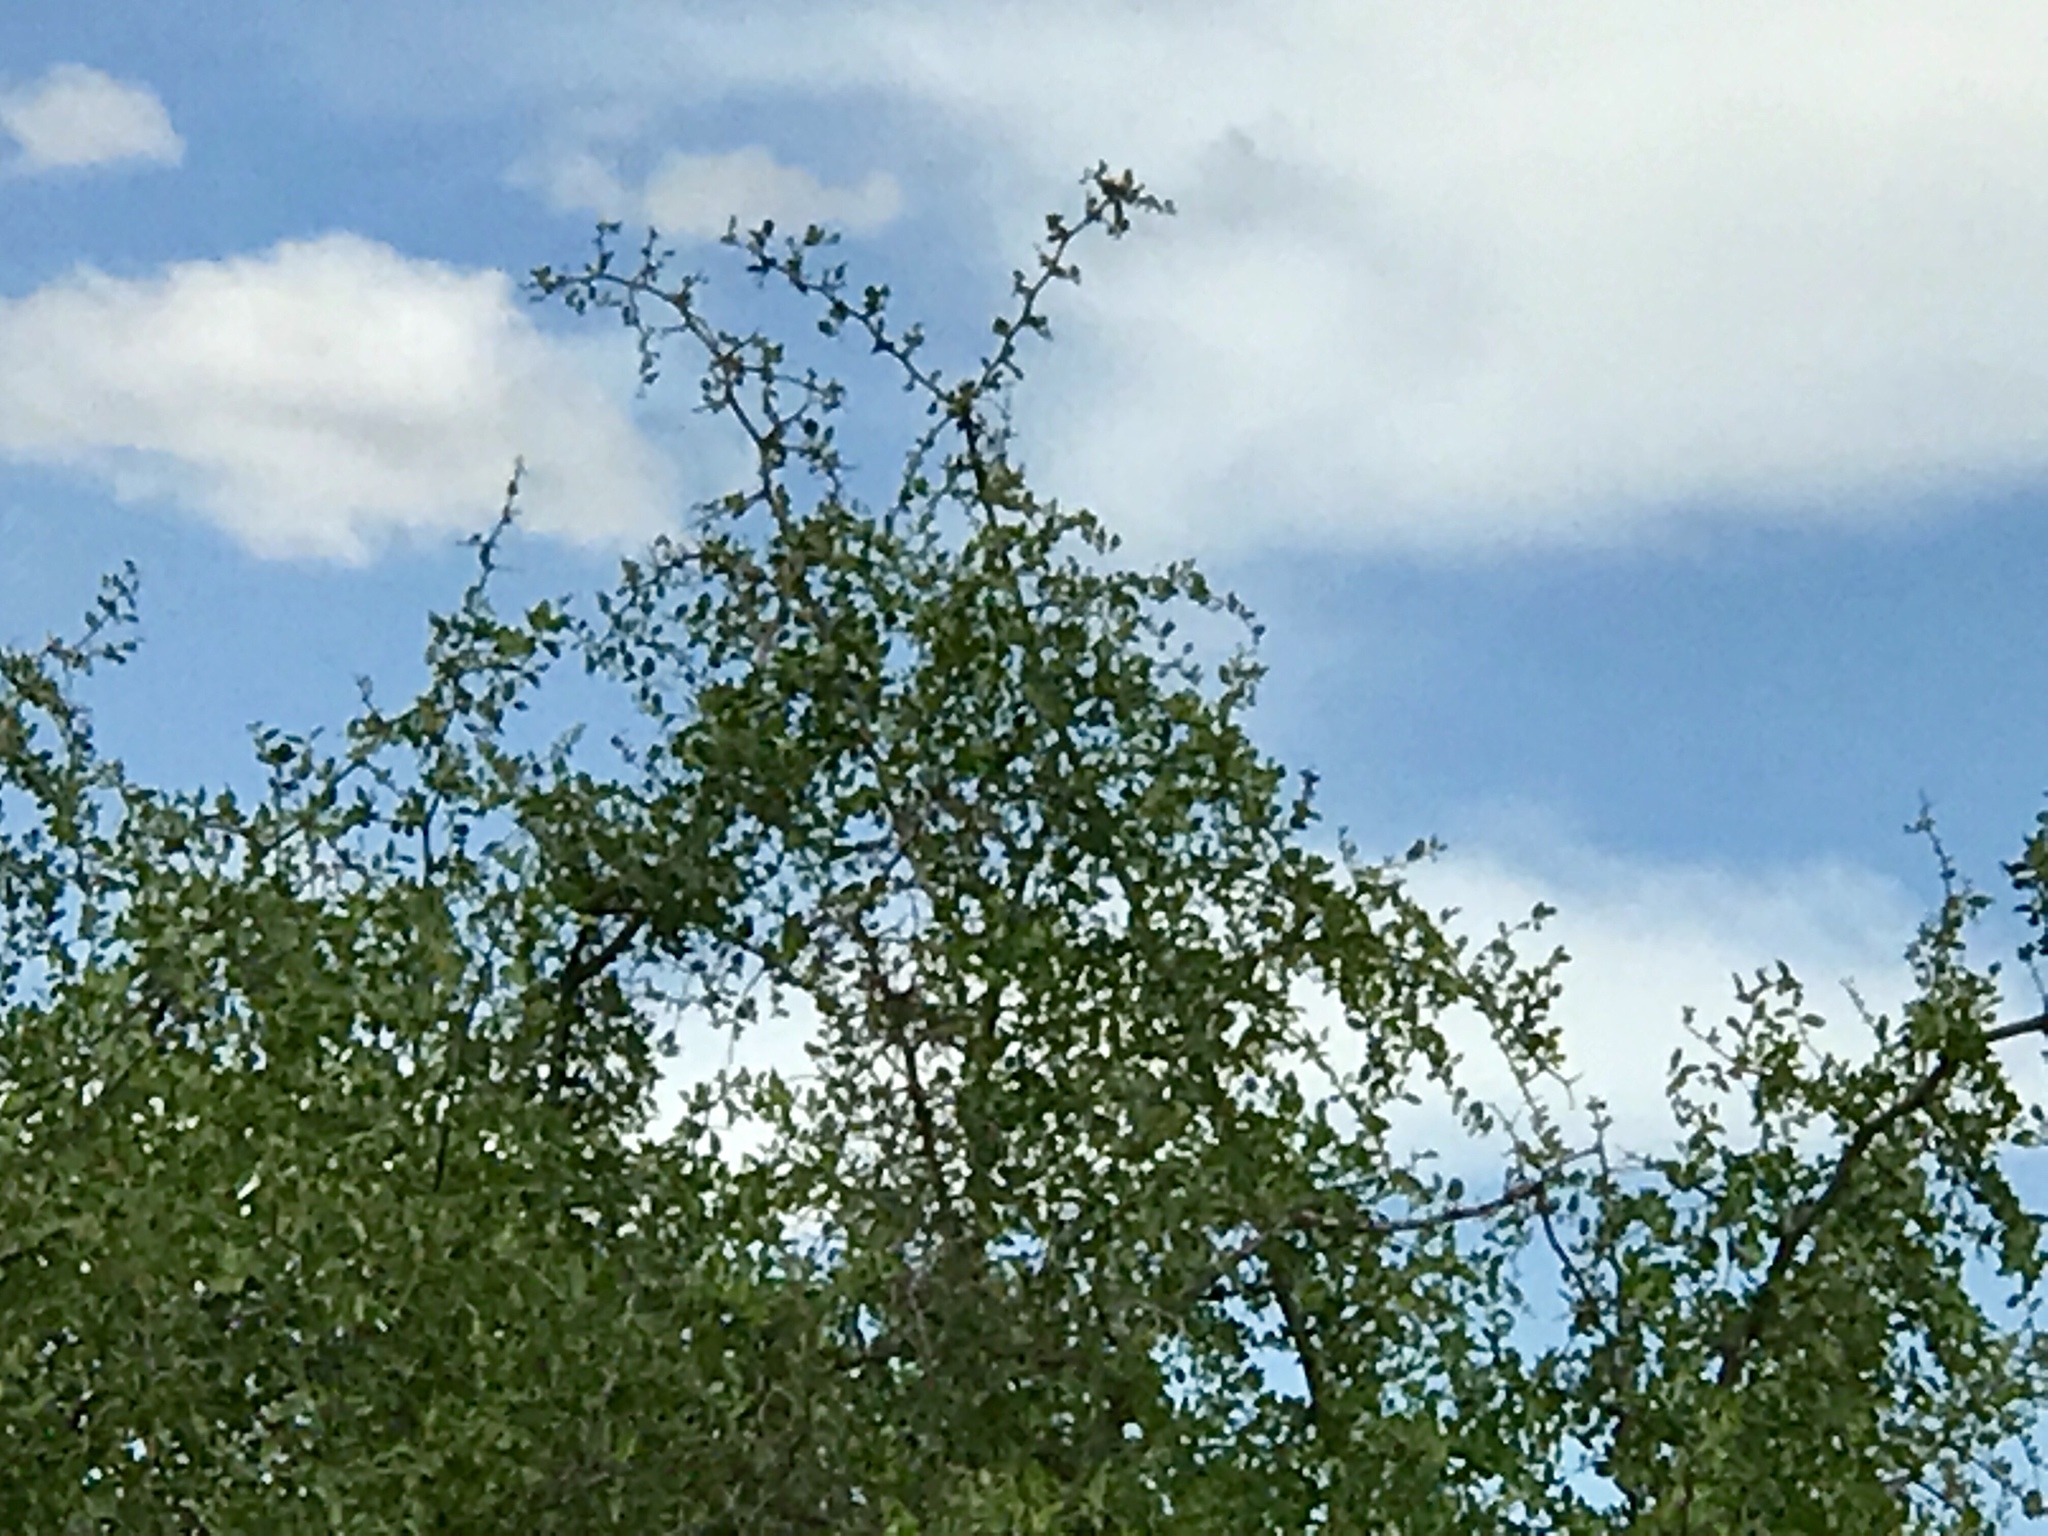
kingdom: Plantae
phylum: Tracheophyta
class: Magnoliopsida
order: Rosales
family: Cannabaceae
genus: Celtis
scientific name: Celtis pallida
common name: Desert hackberry
